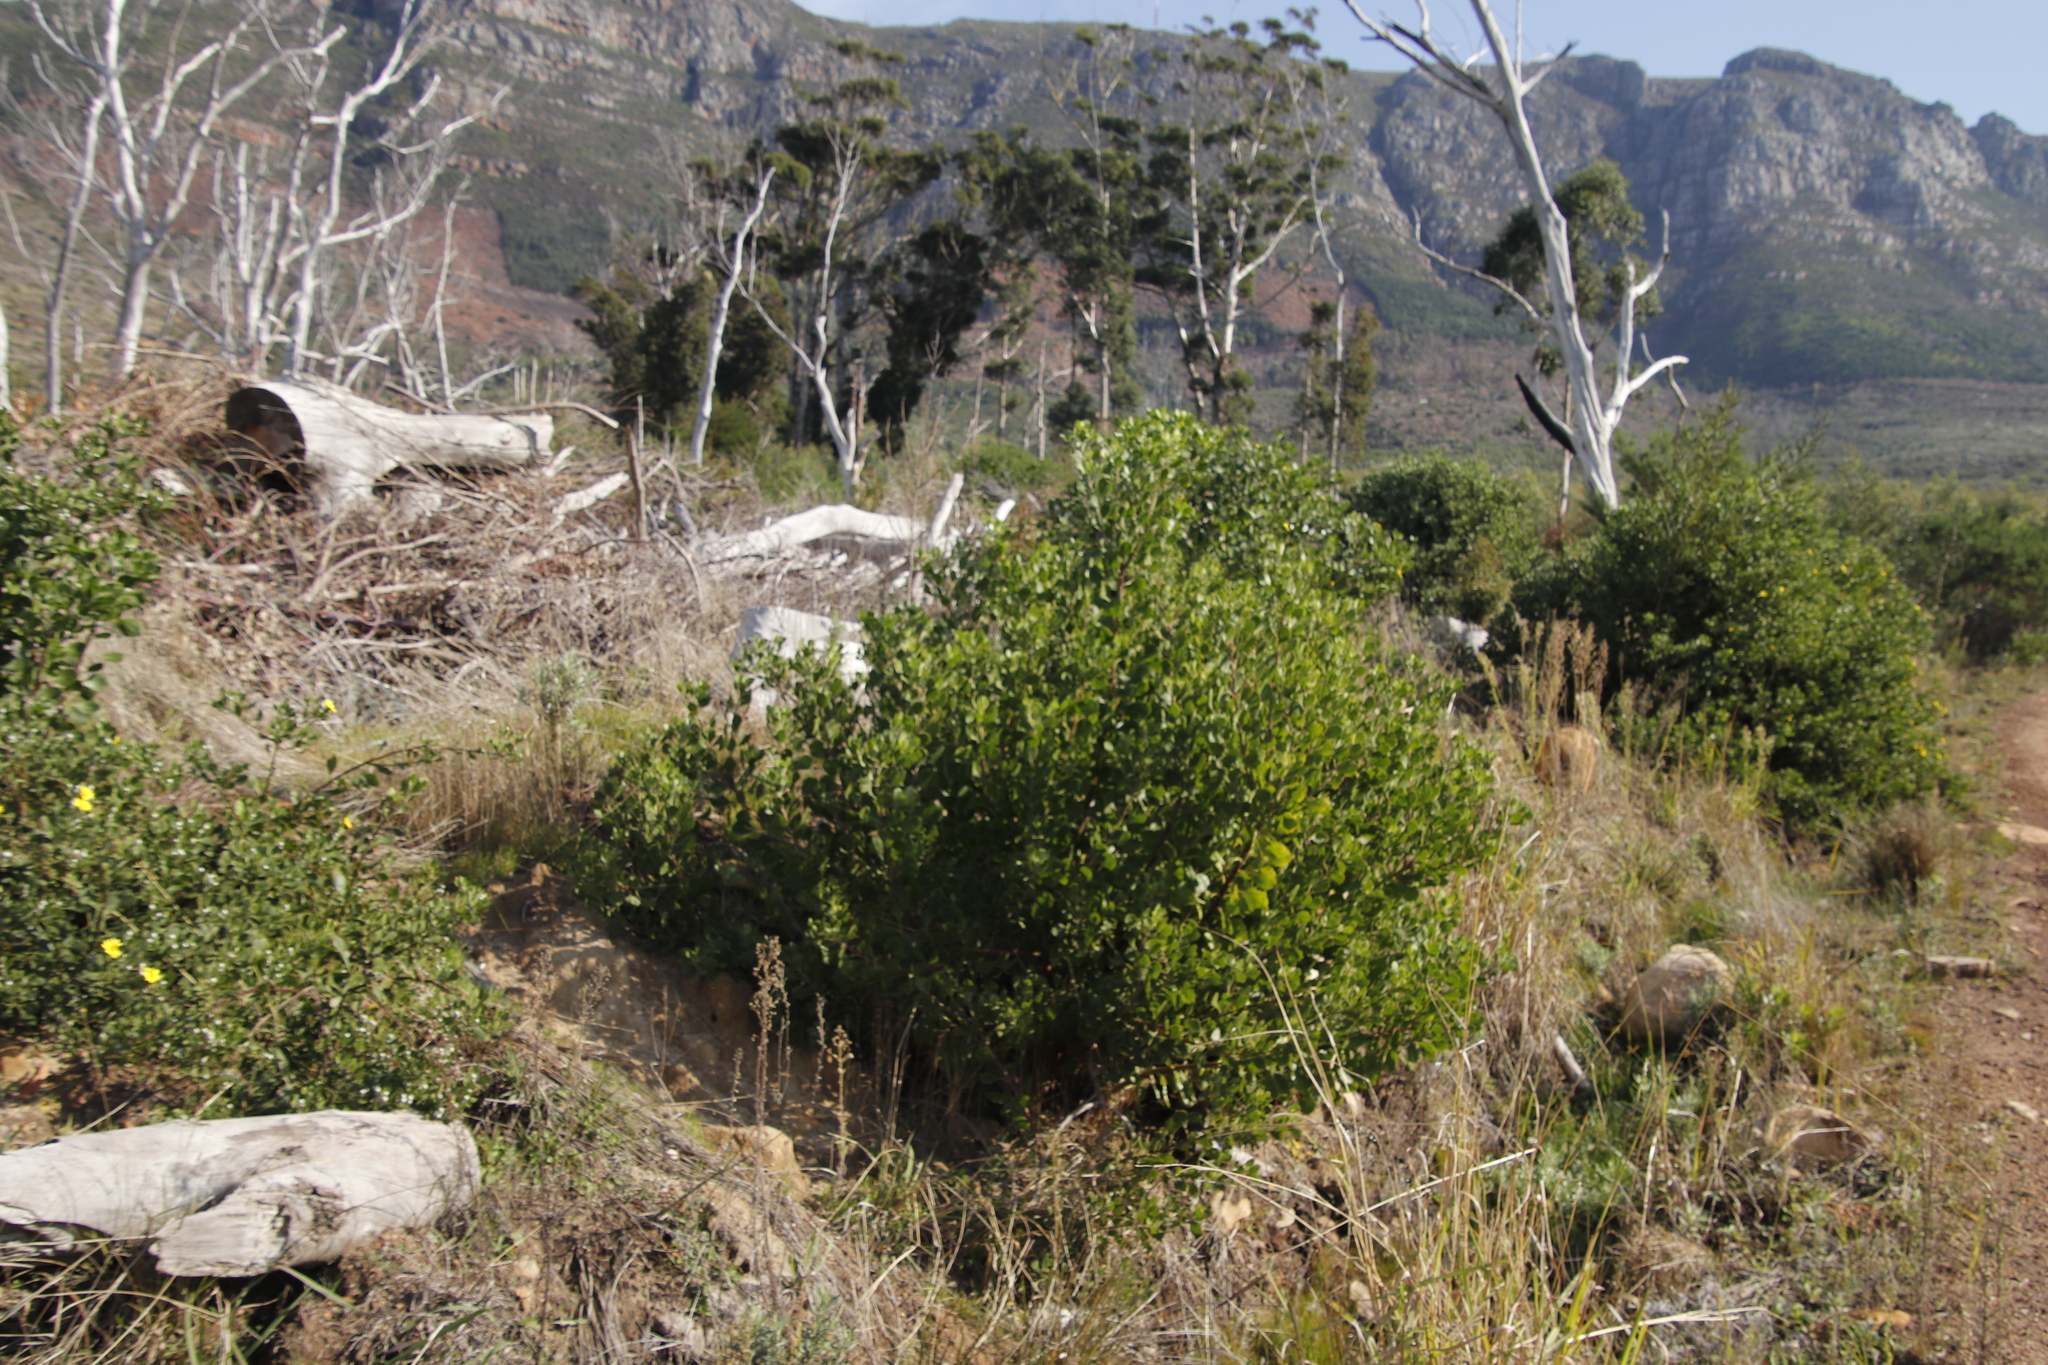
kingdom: Plantae
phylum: Tracheophyta
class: Magnoliopsida
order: Asterales
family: Asteraceae
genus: Osteospermum
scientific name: Osteospermum moniliferum
